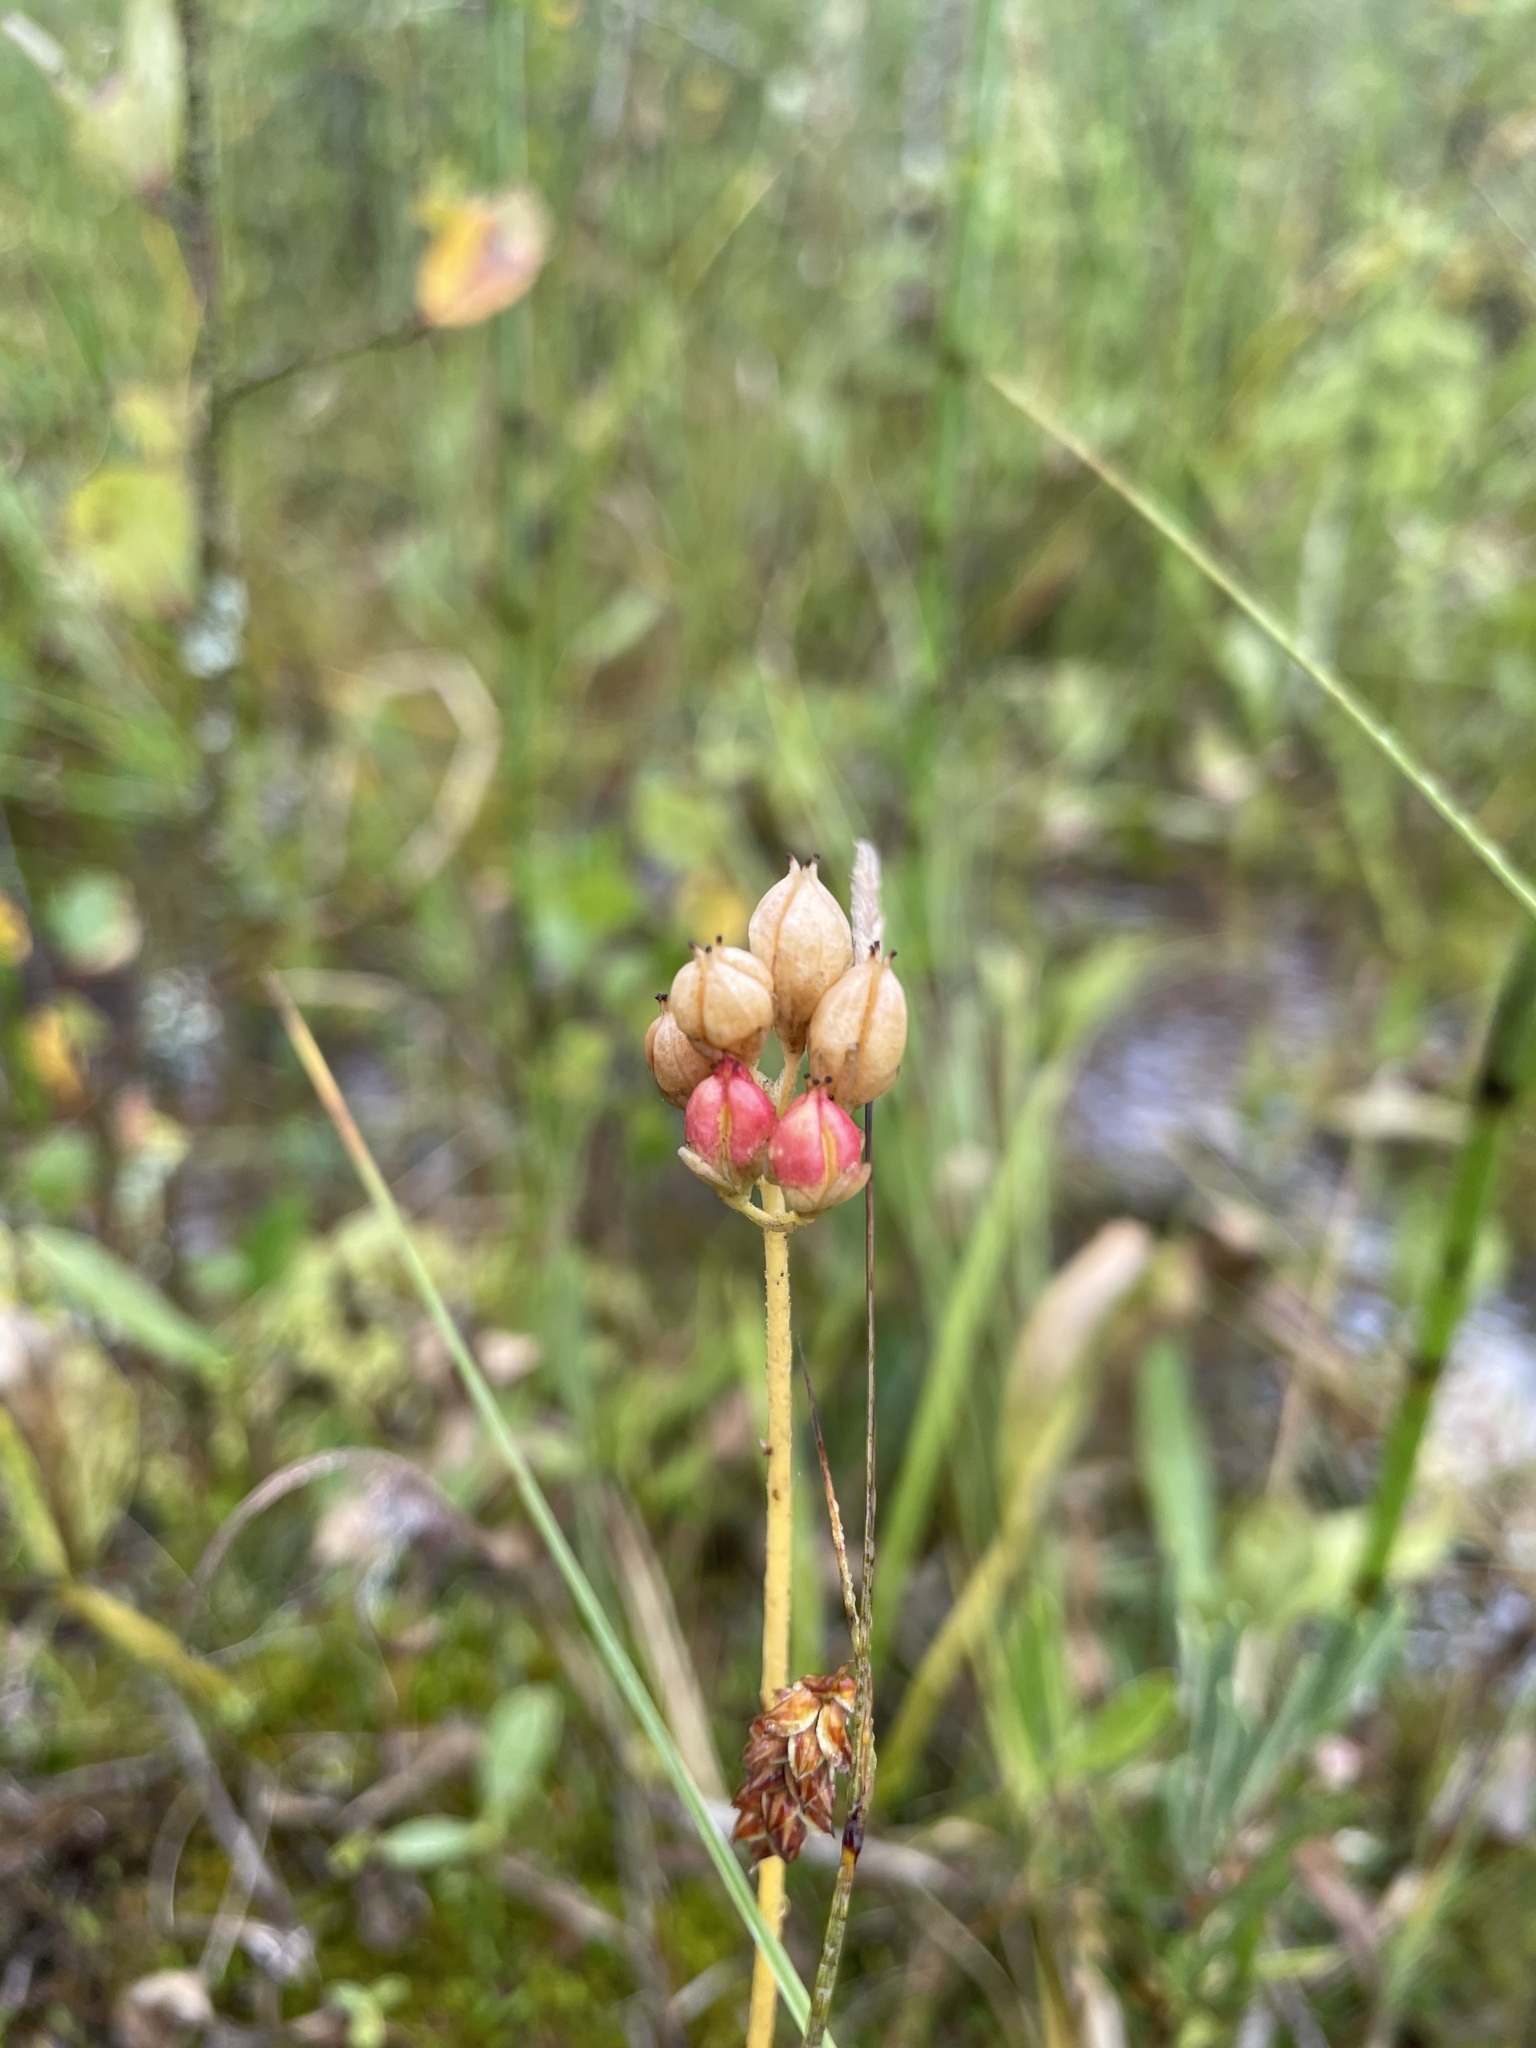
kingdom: Plantae
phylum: Tracheophyta
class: Liliopsida
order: Alismatales
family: Tofieldiaceae
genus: Triantha
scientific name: Triantha glutinosa
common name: Glutinous tofieldia
